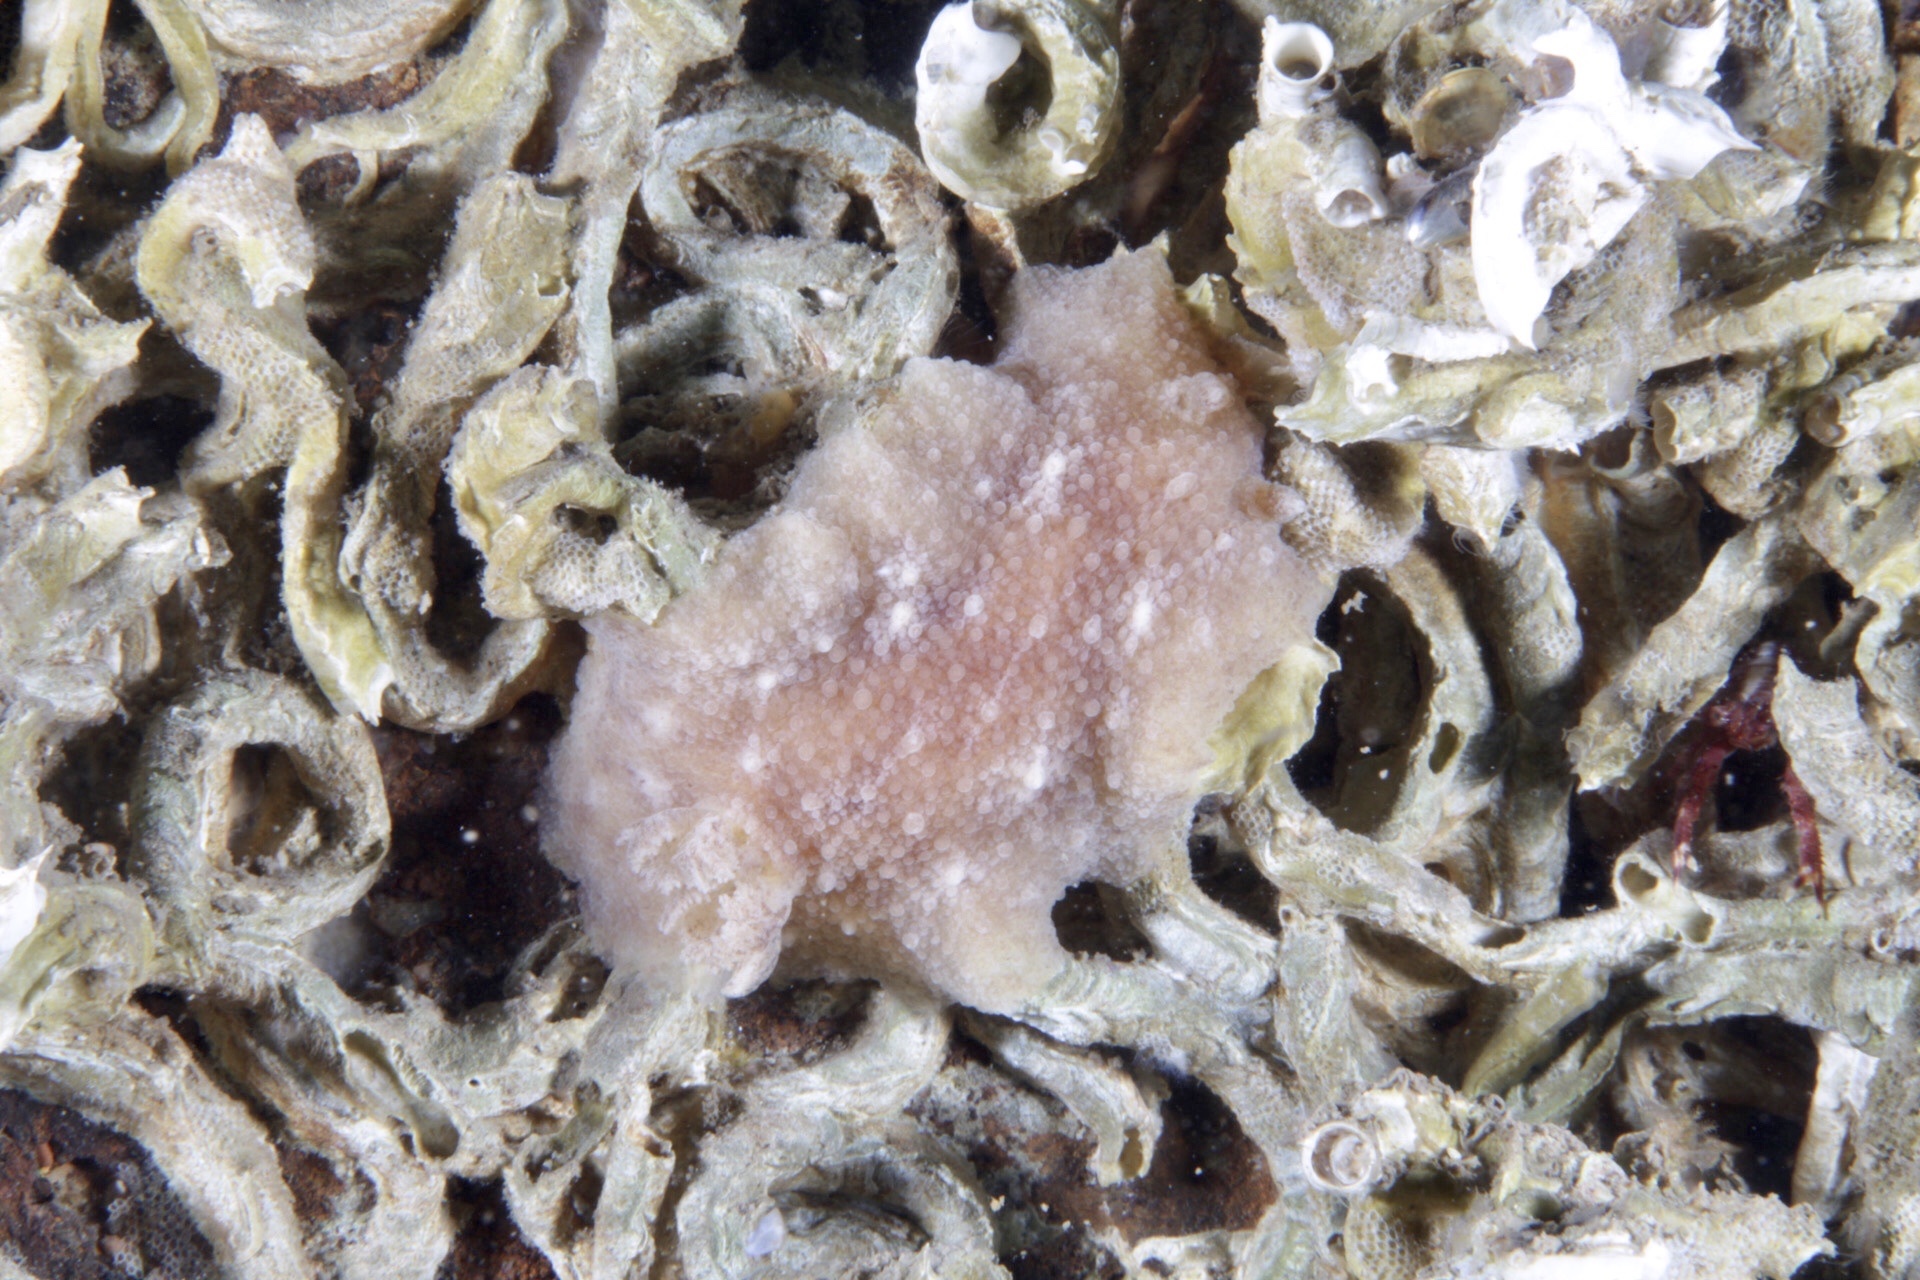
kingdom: Animalia
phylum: Mollusca
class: Gastropoda
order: Nudibranchia
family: Discodorididae
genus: Geitodoris
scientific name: Geitodoris planata
